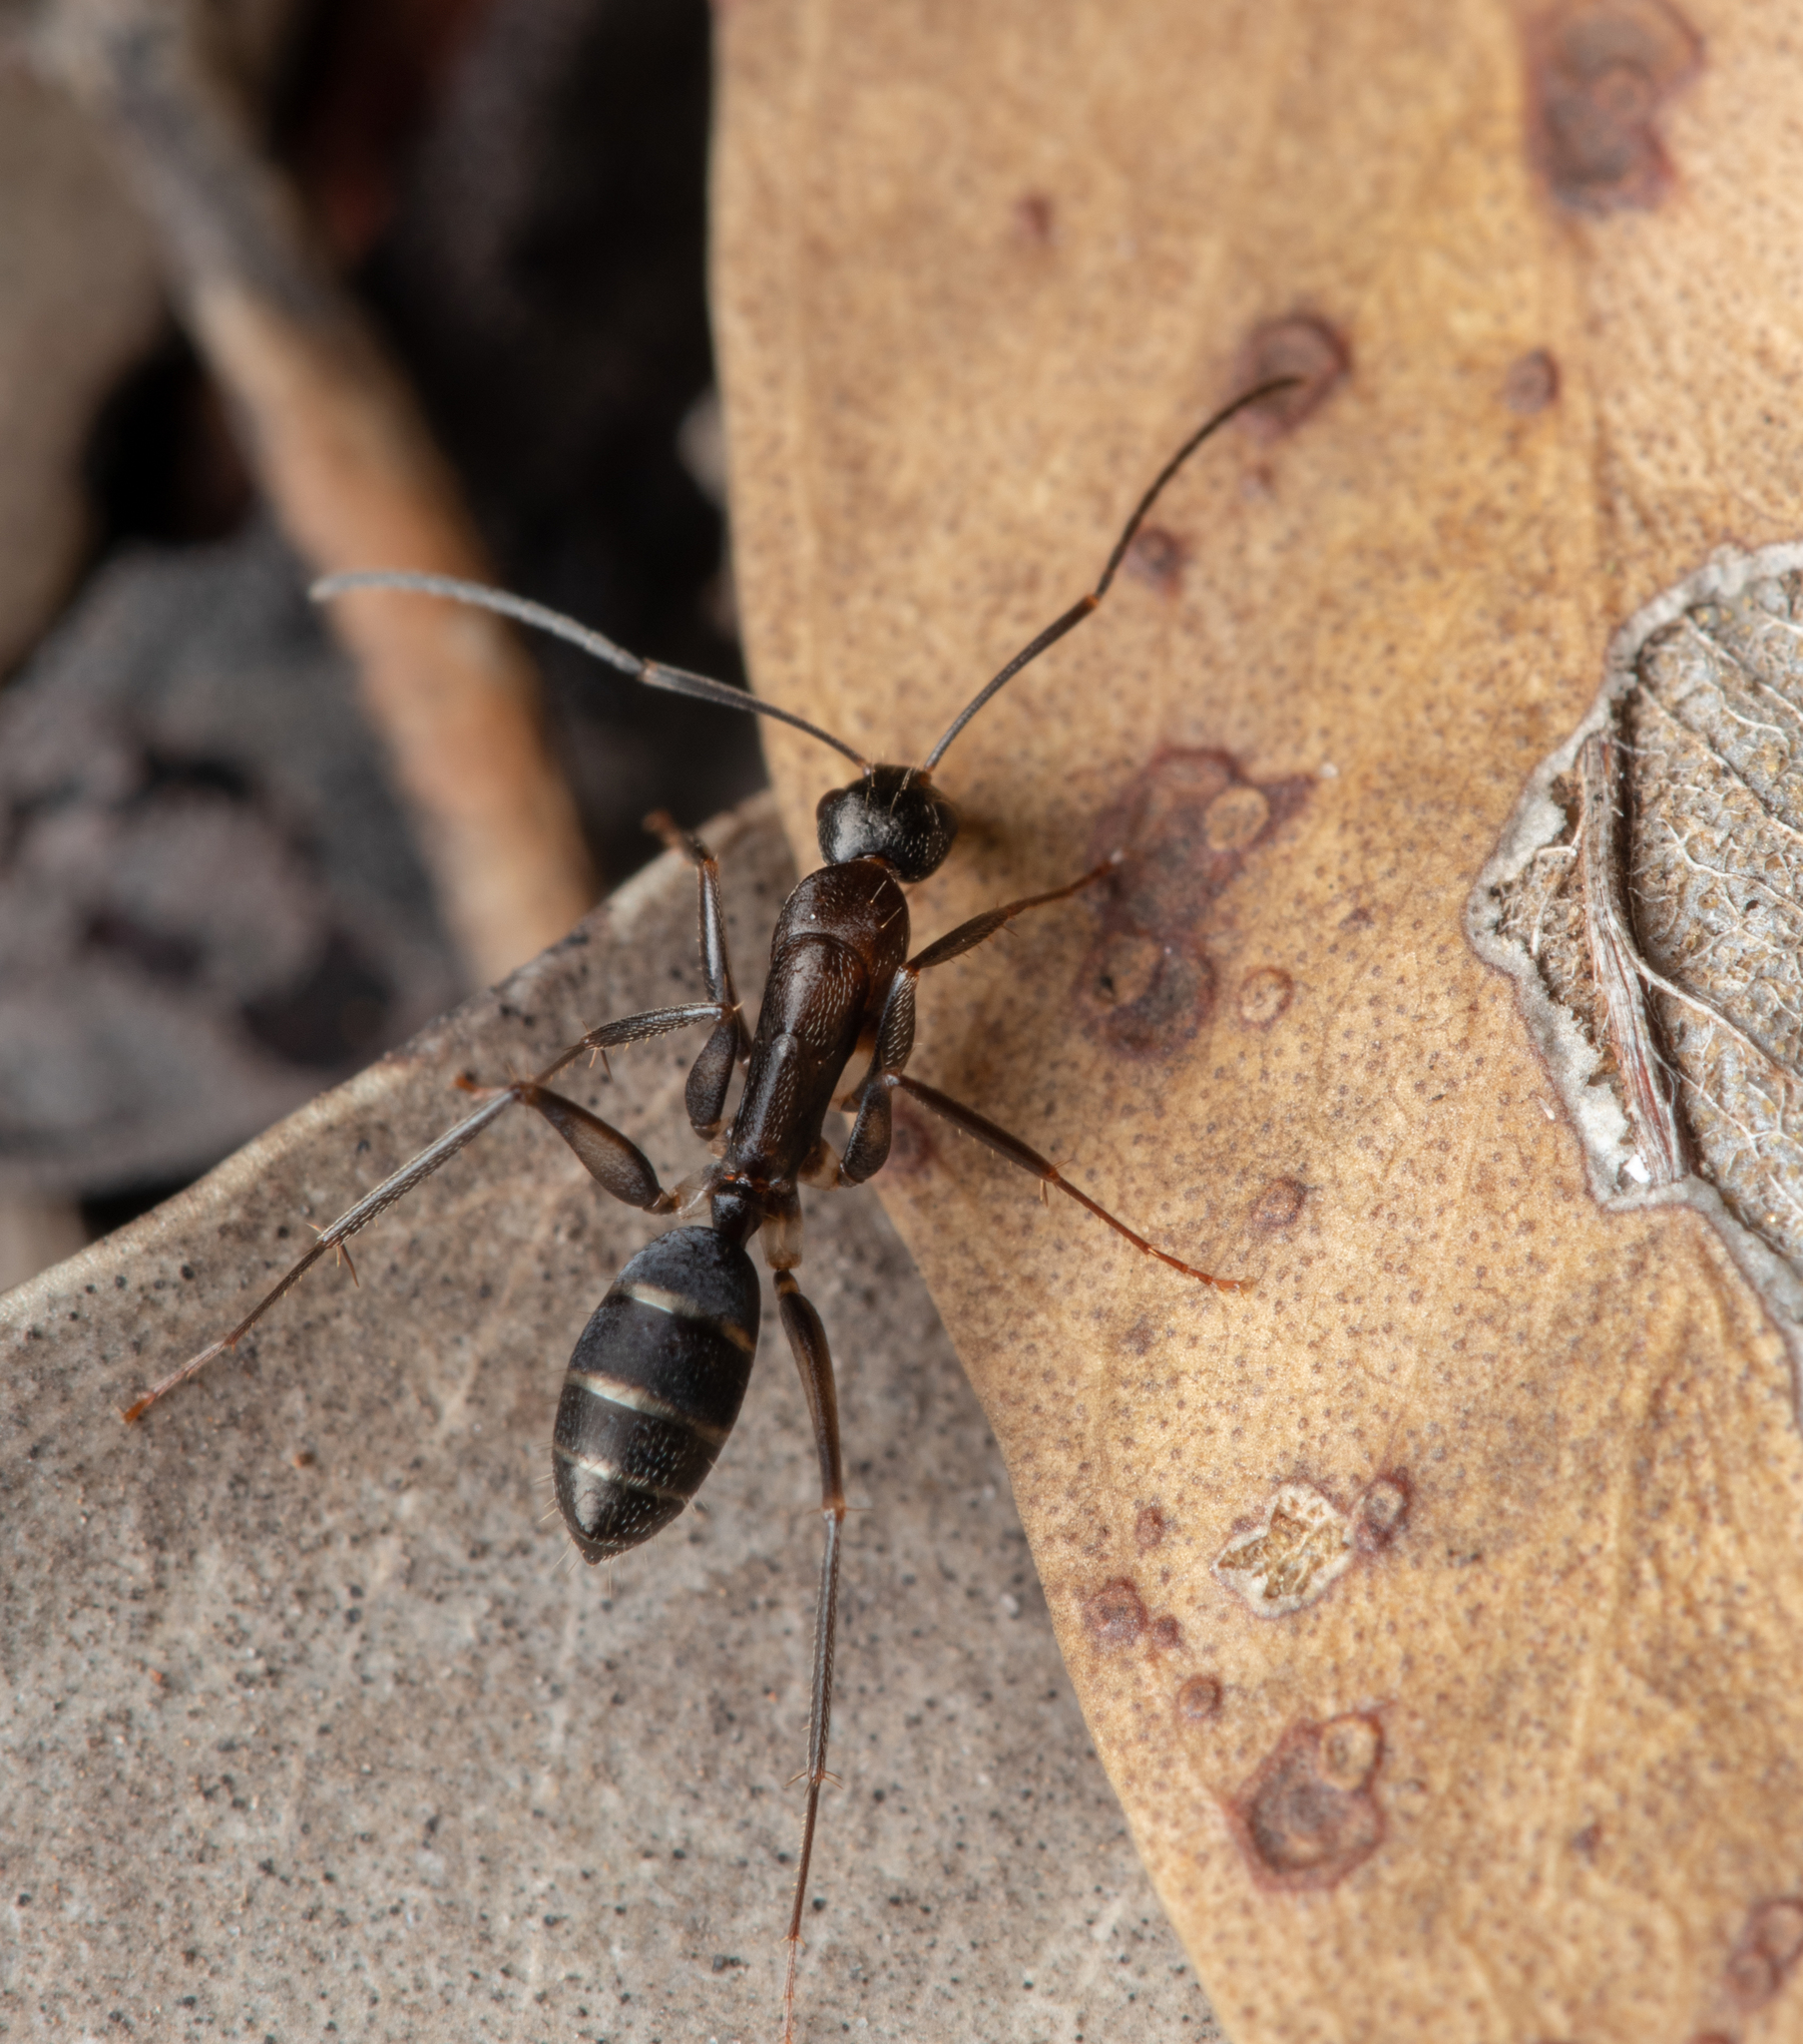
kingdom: Animalia
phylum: Arthropoda
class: Insecta
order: Hymenoptera
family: Formicidae
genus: Camponotus
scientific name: Camponotus lividicoxis
